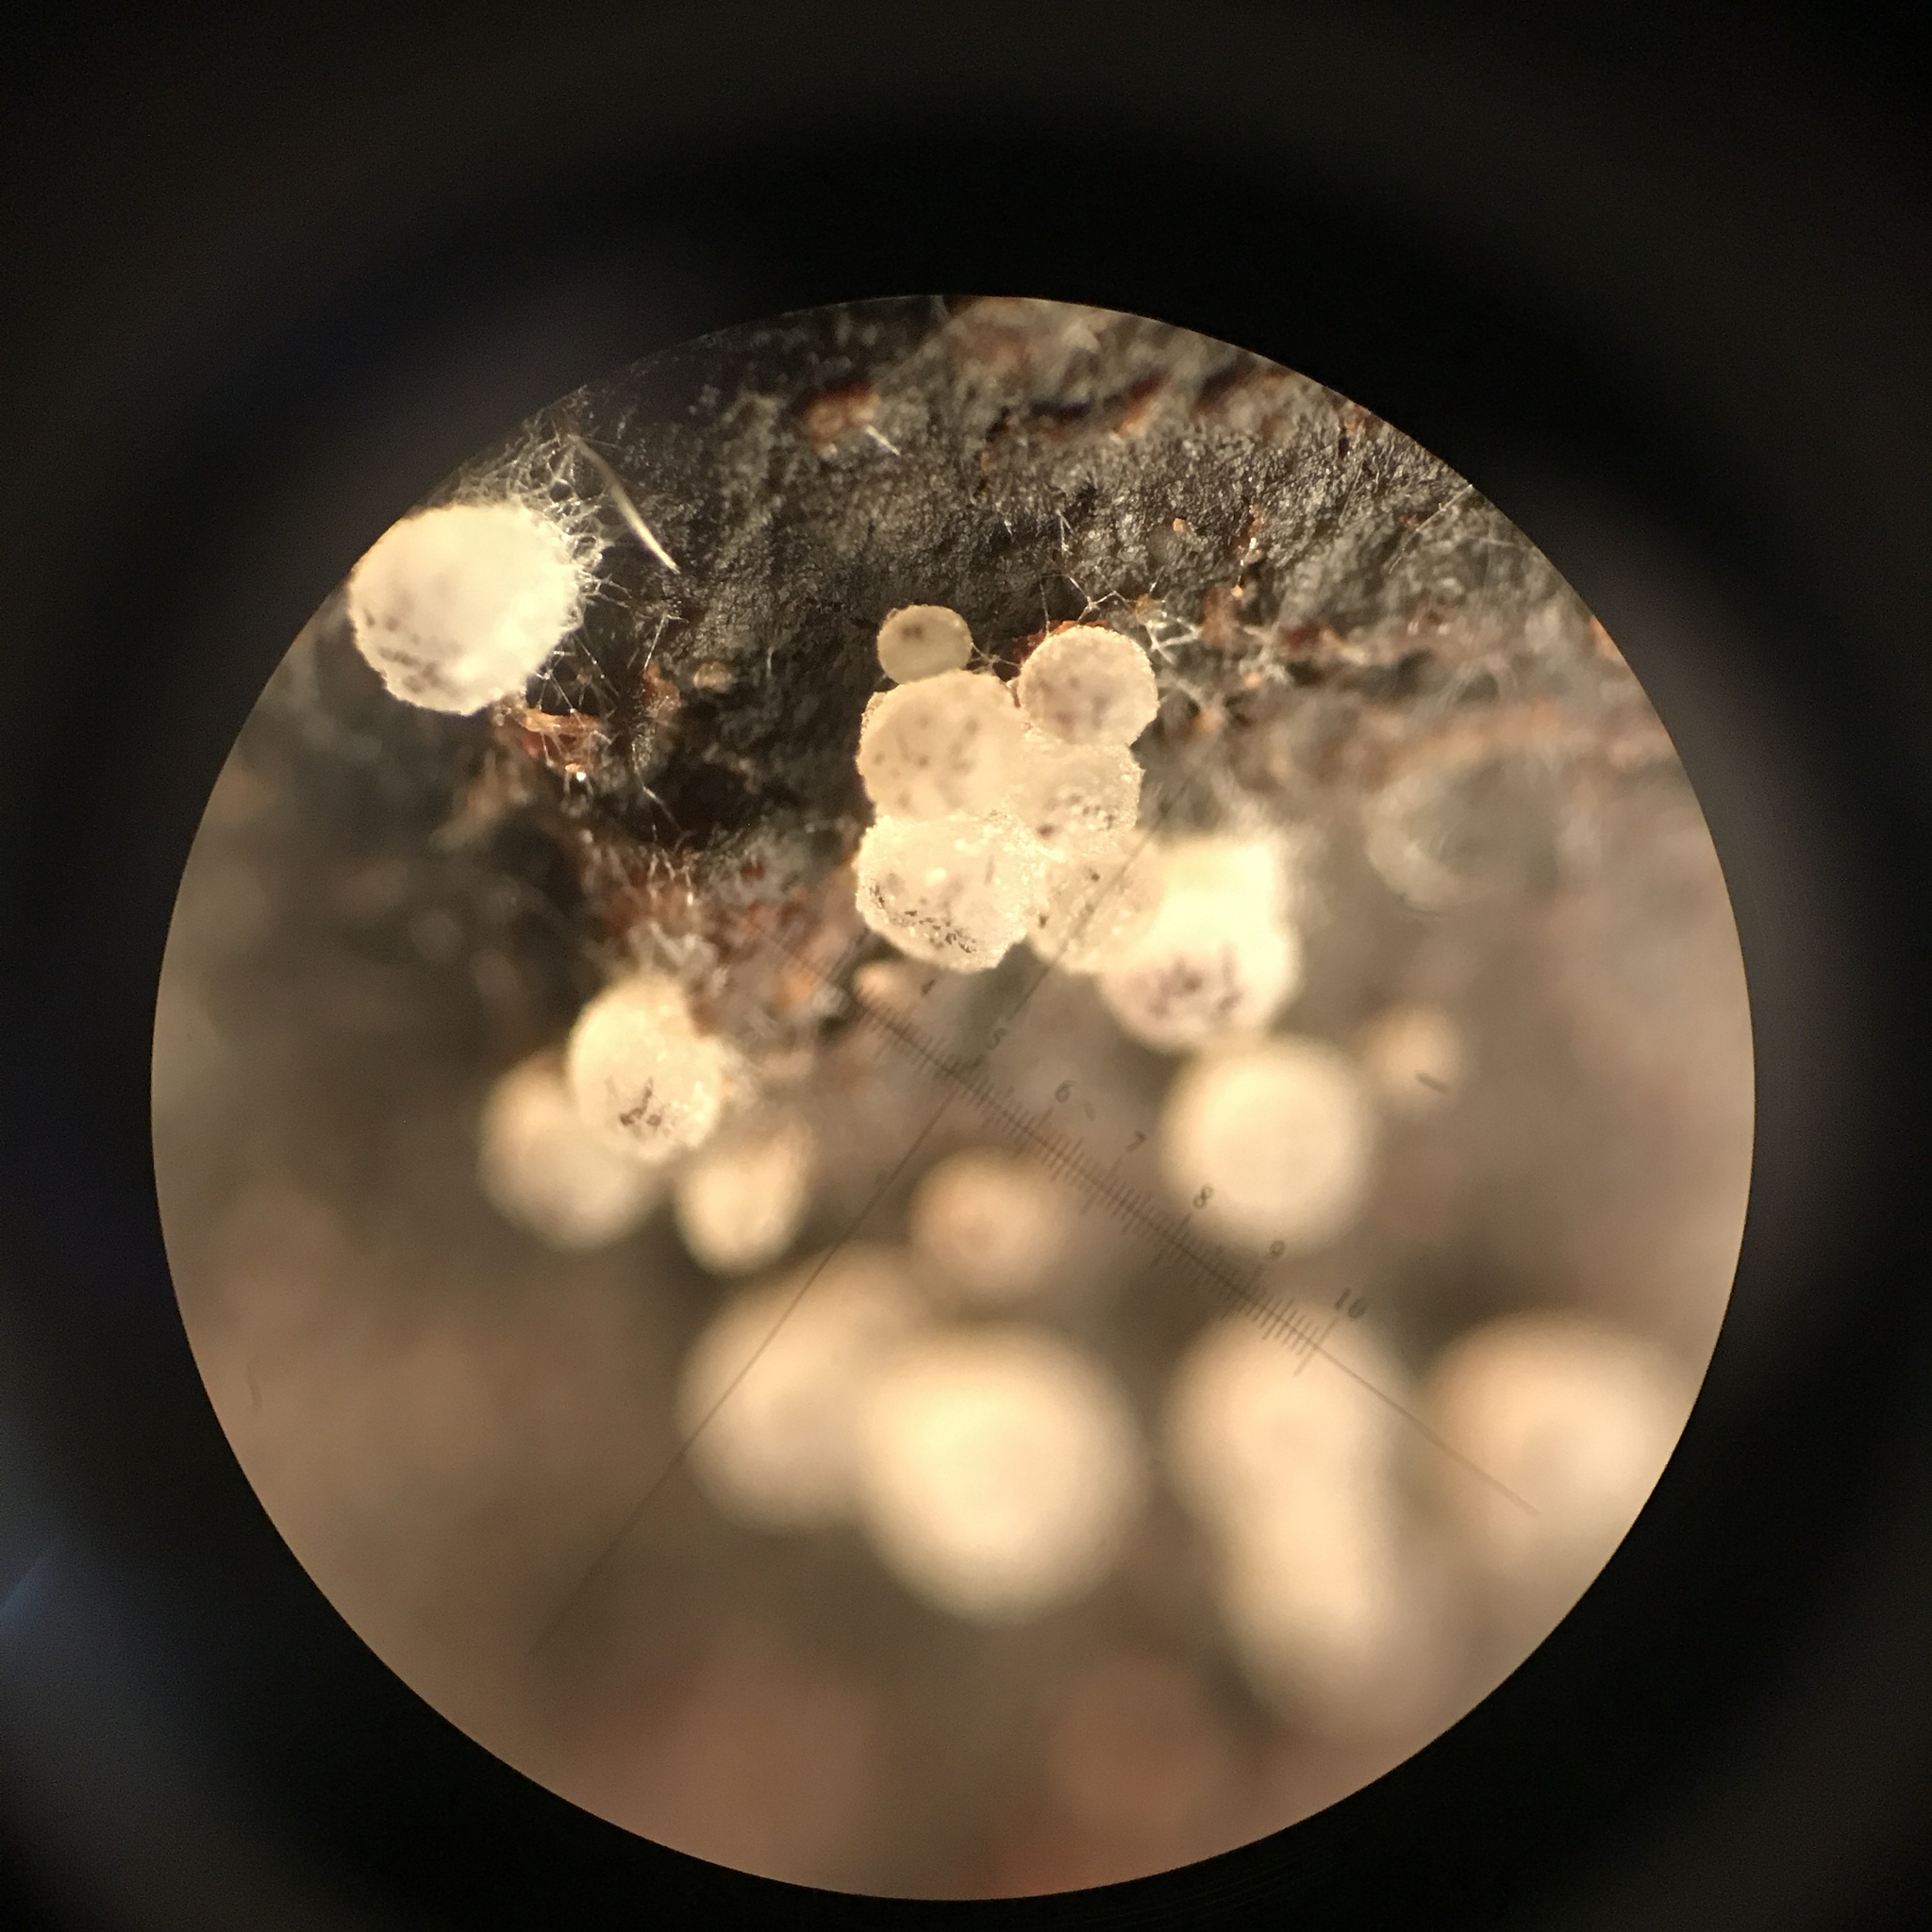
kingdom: Fungi
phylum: Ascomycota
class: Pezizomycetes
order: Pezizales
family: Ascobolaceae
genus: Ascobolus
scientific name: Ascobolus albidus
